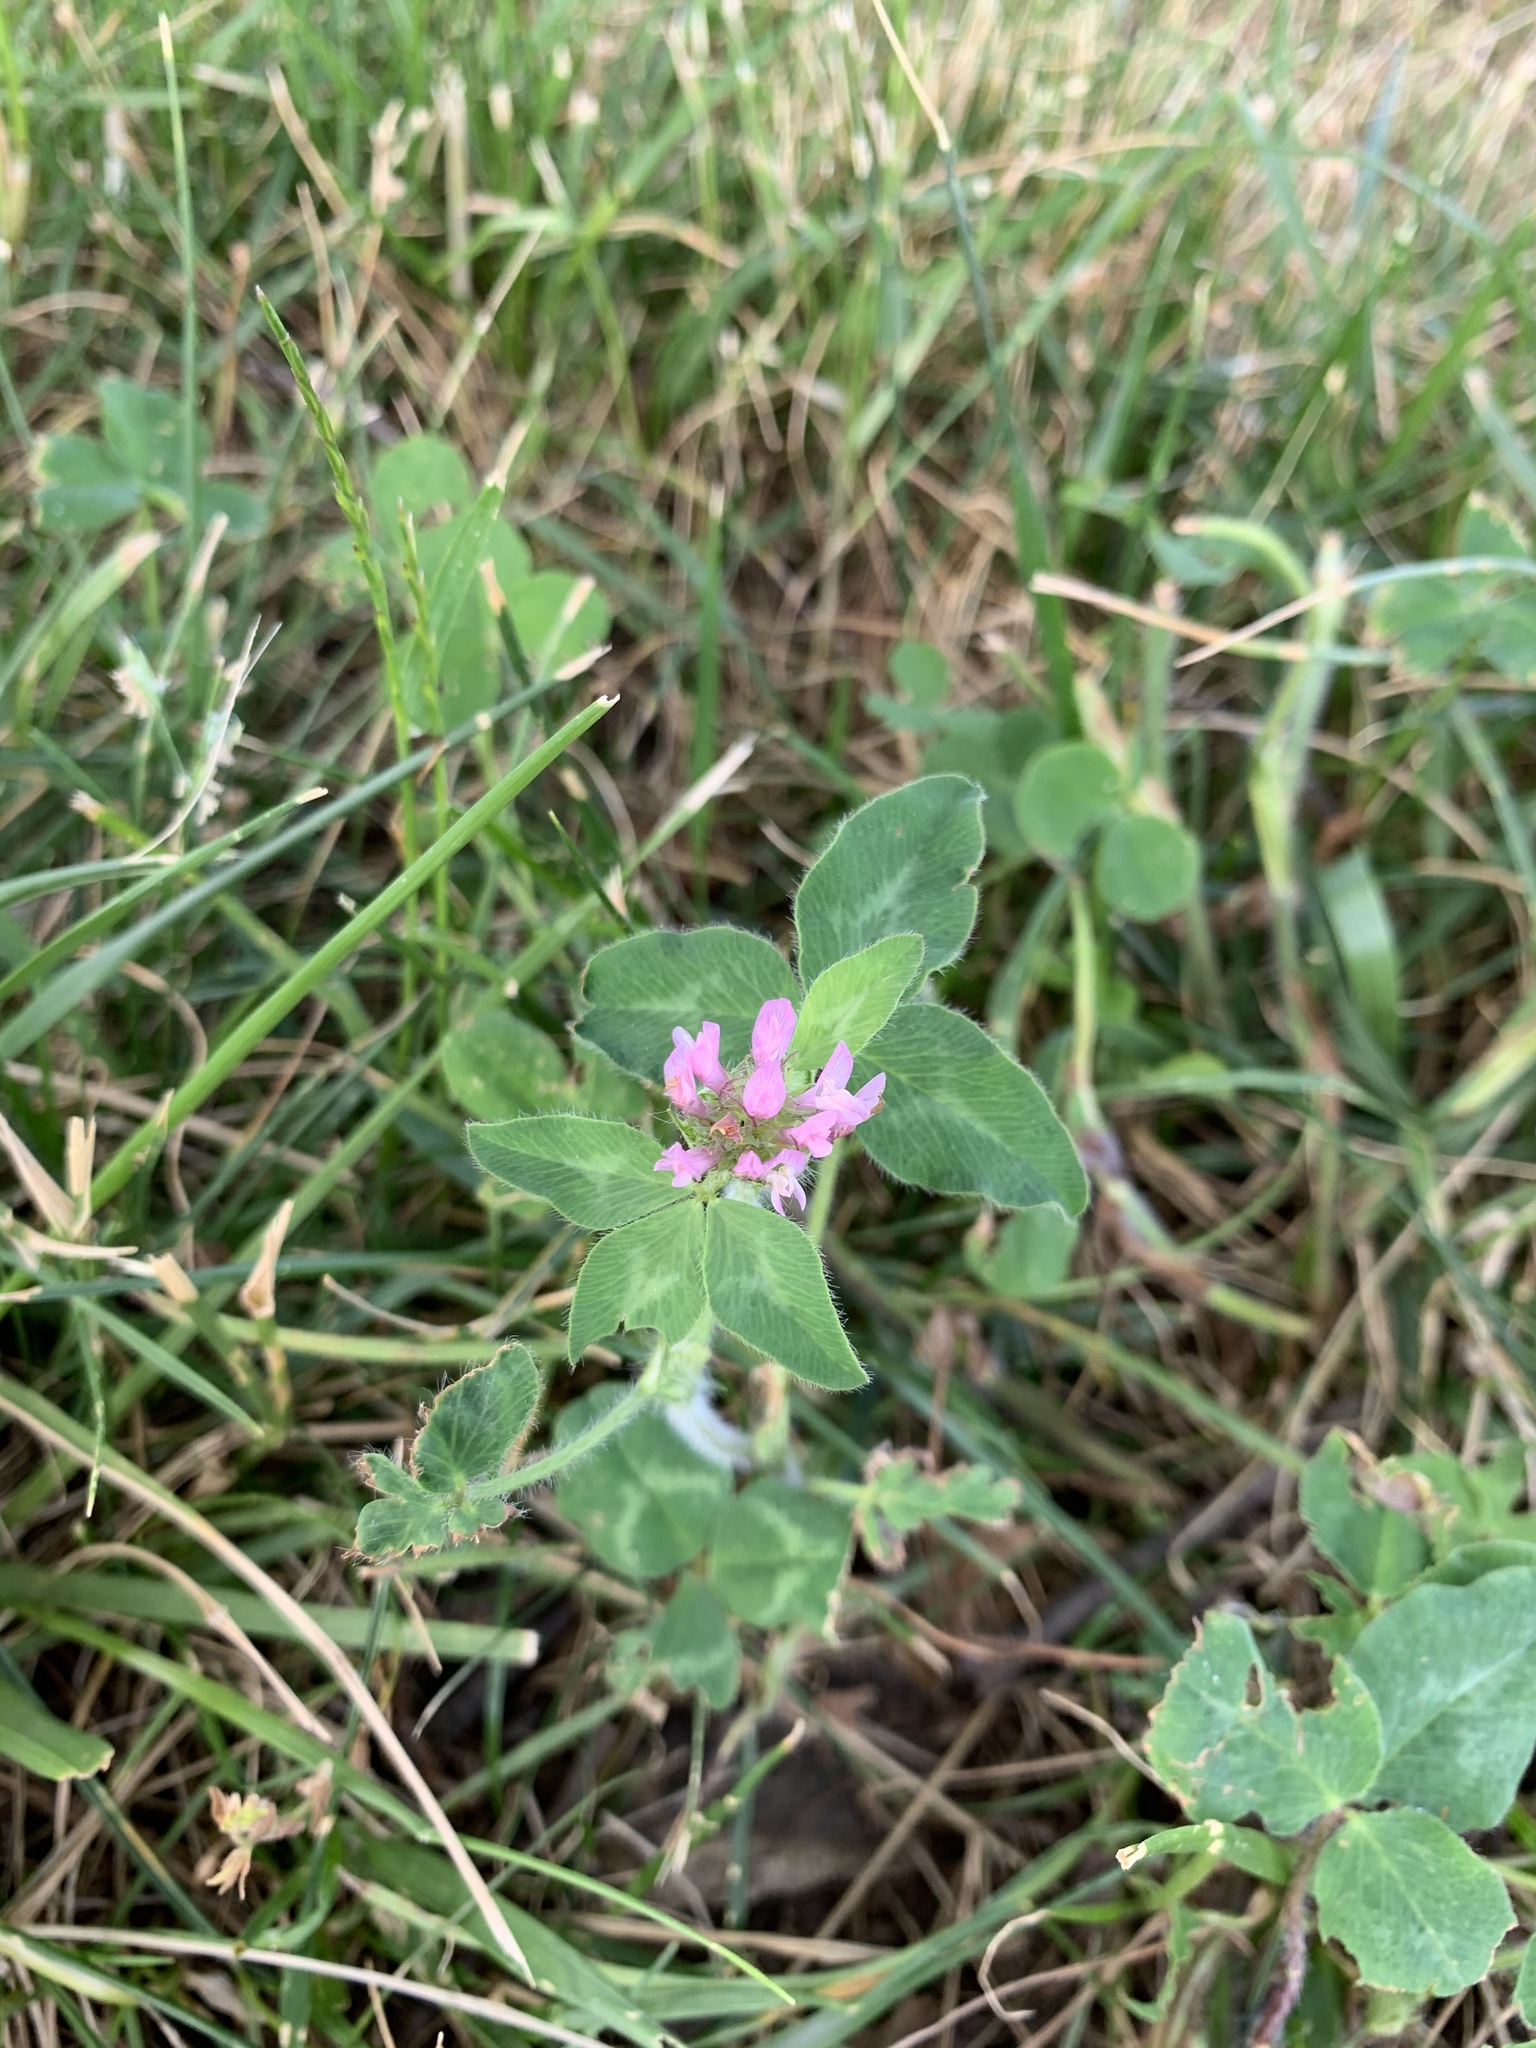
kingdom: Plantae
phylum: Tracheophyta
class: Magnoliopsida
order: Fabales
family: Fabaceae
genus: Trifolium
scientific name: Trifolium pratense
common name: Red clover
